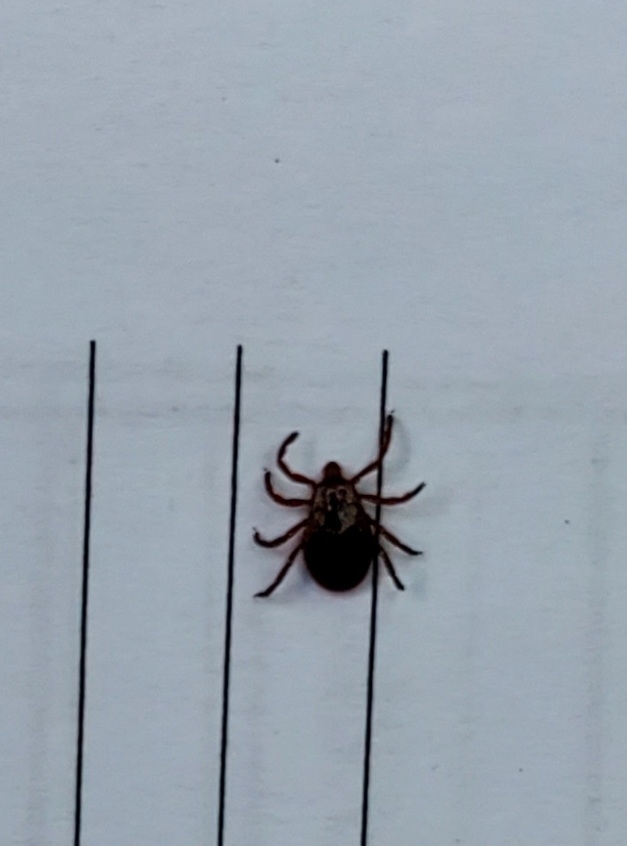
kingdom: Animalia
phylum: Arthropoda
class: Arachnida
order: Ixodida
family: Ixodidae
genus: Dermacentor
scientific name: Dermacentor variabilis
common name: American dog tick
